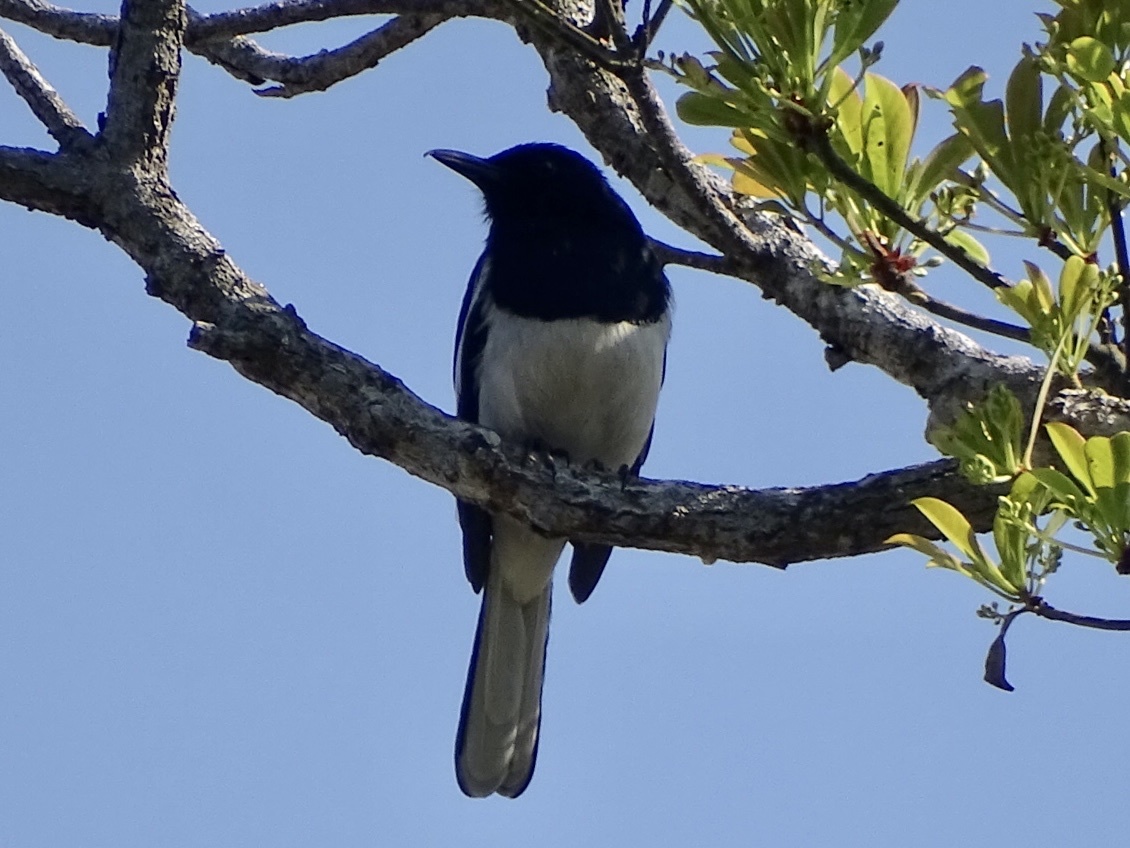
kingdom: Animalia
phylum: Chordata
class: Aves
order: Passeriformes
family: Muscicapidae
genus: Copsychus
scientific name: Copsychus saularis
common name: Oriental magpie-robin
